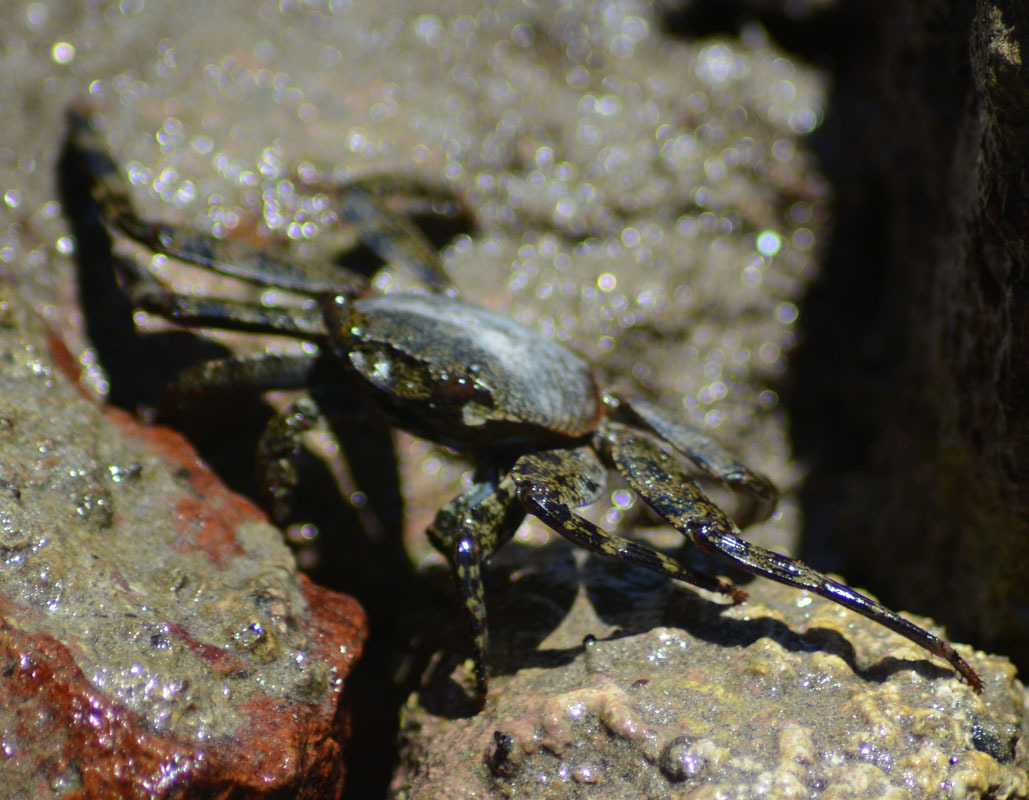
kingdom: Animalia
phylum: Arthropoda
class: Malacostraca
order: Decapoda
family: Grapsidae
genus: Grapsus
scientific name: Grapsus grapsus
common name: Sally lightfoot
